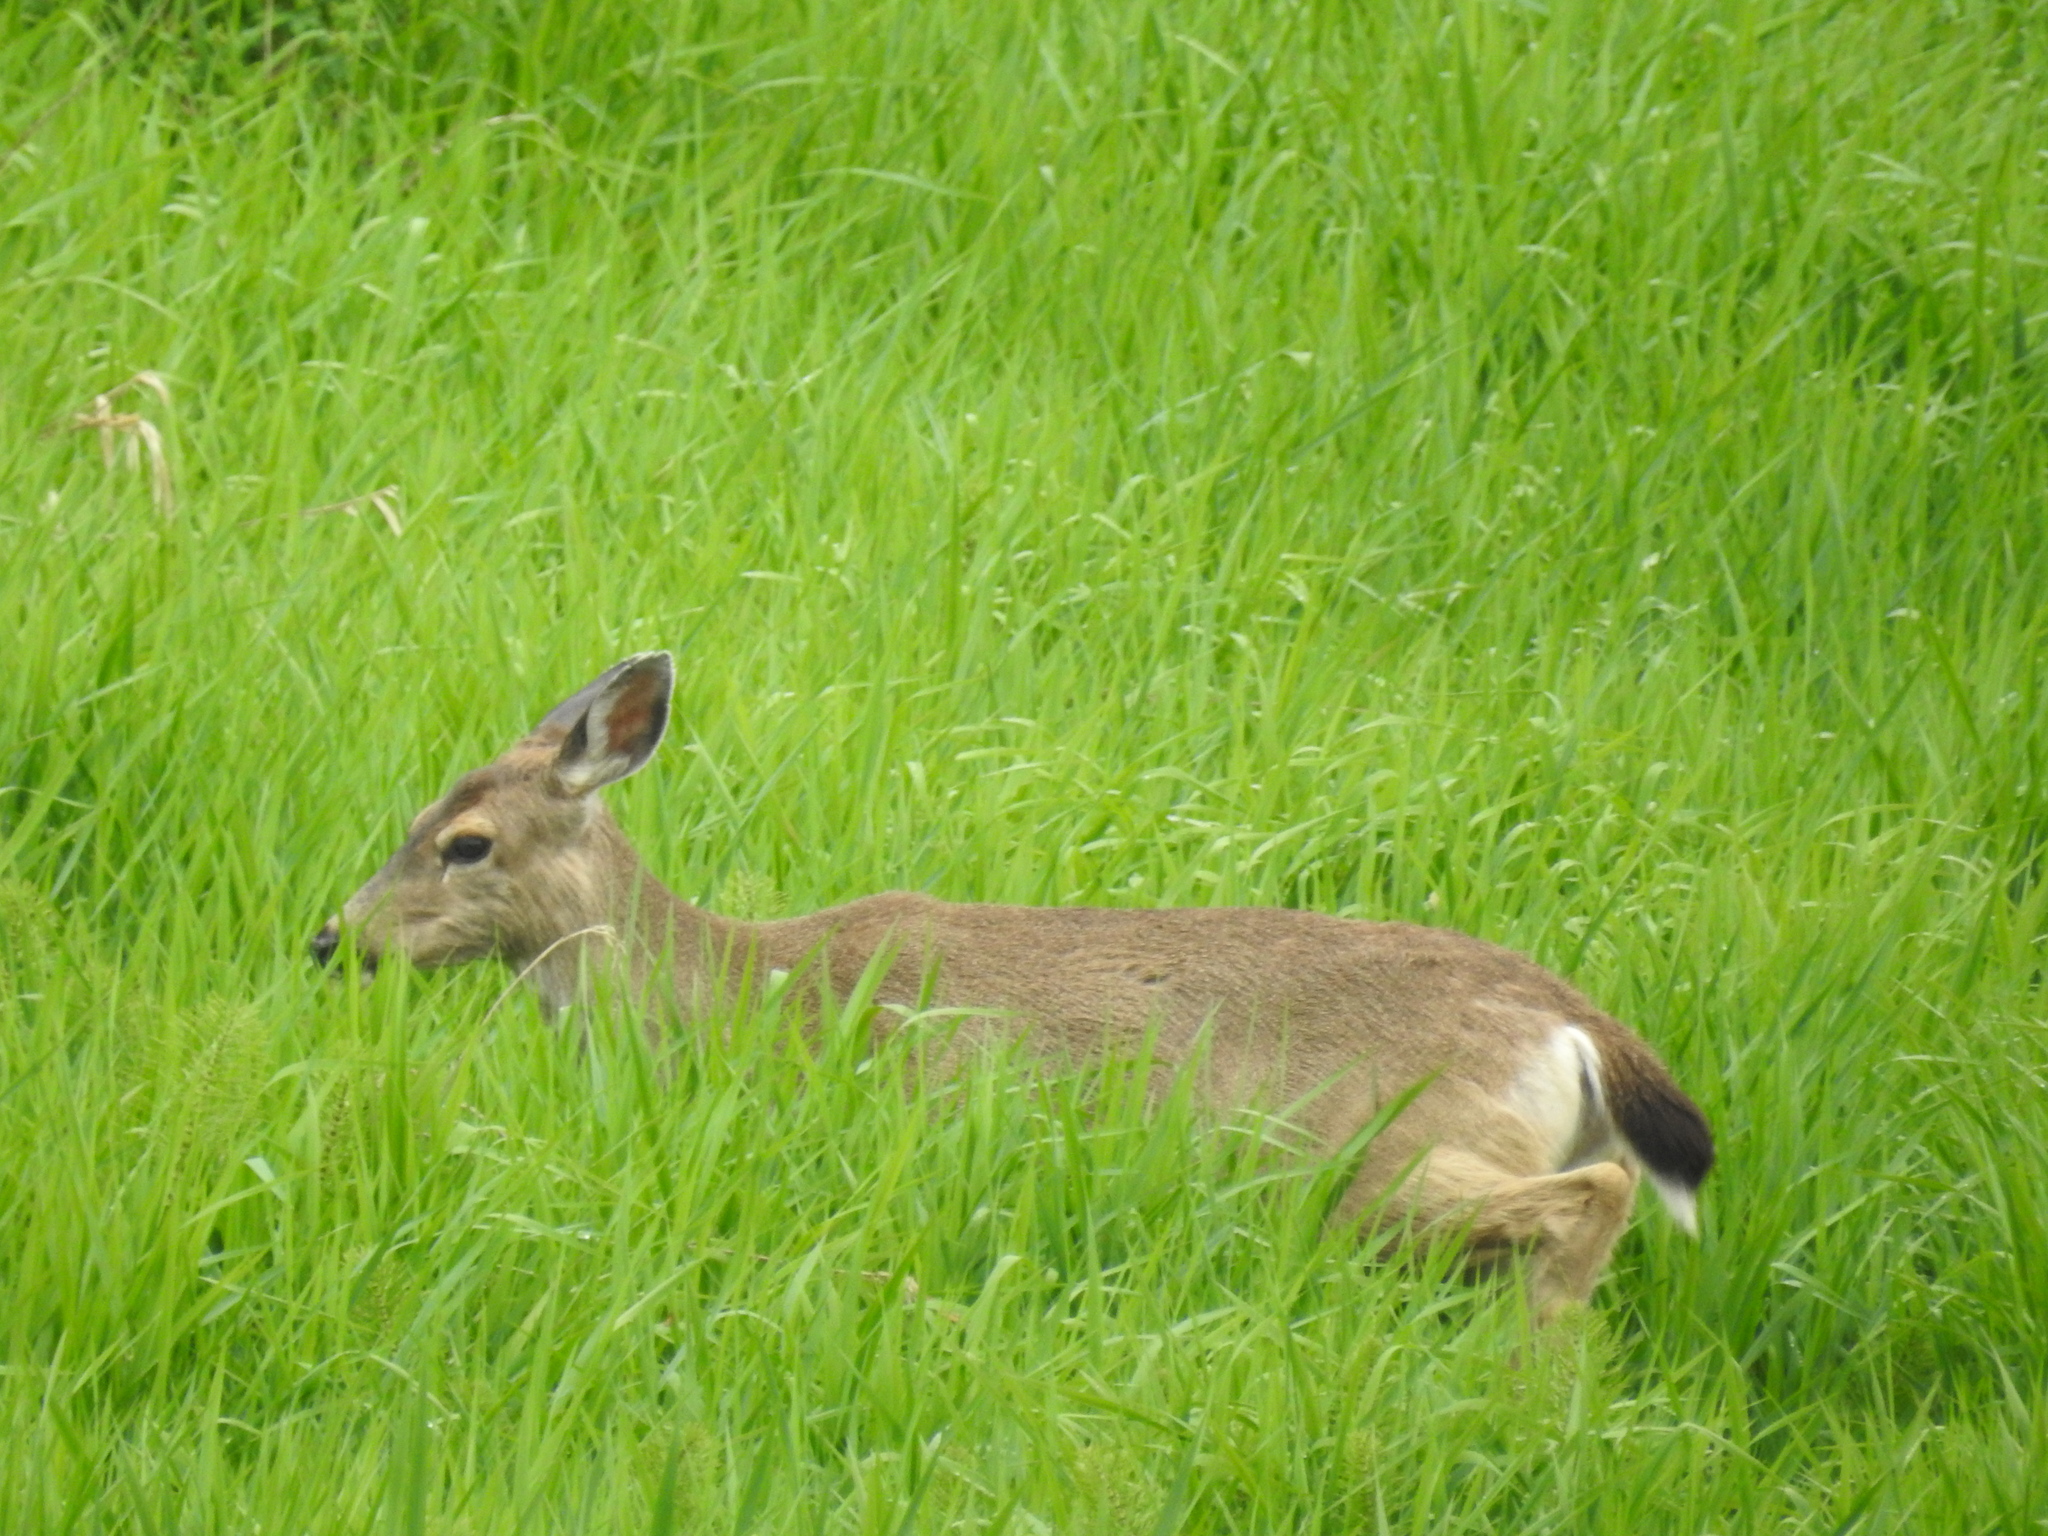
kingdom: Animalia
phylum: Chordata
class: Mammalia
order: Artiodactyla
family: Cervidae
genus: Odocoileus
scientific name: Odocoileus hemionus
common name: Mule deer
